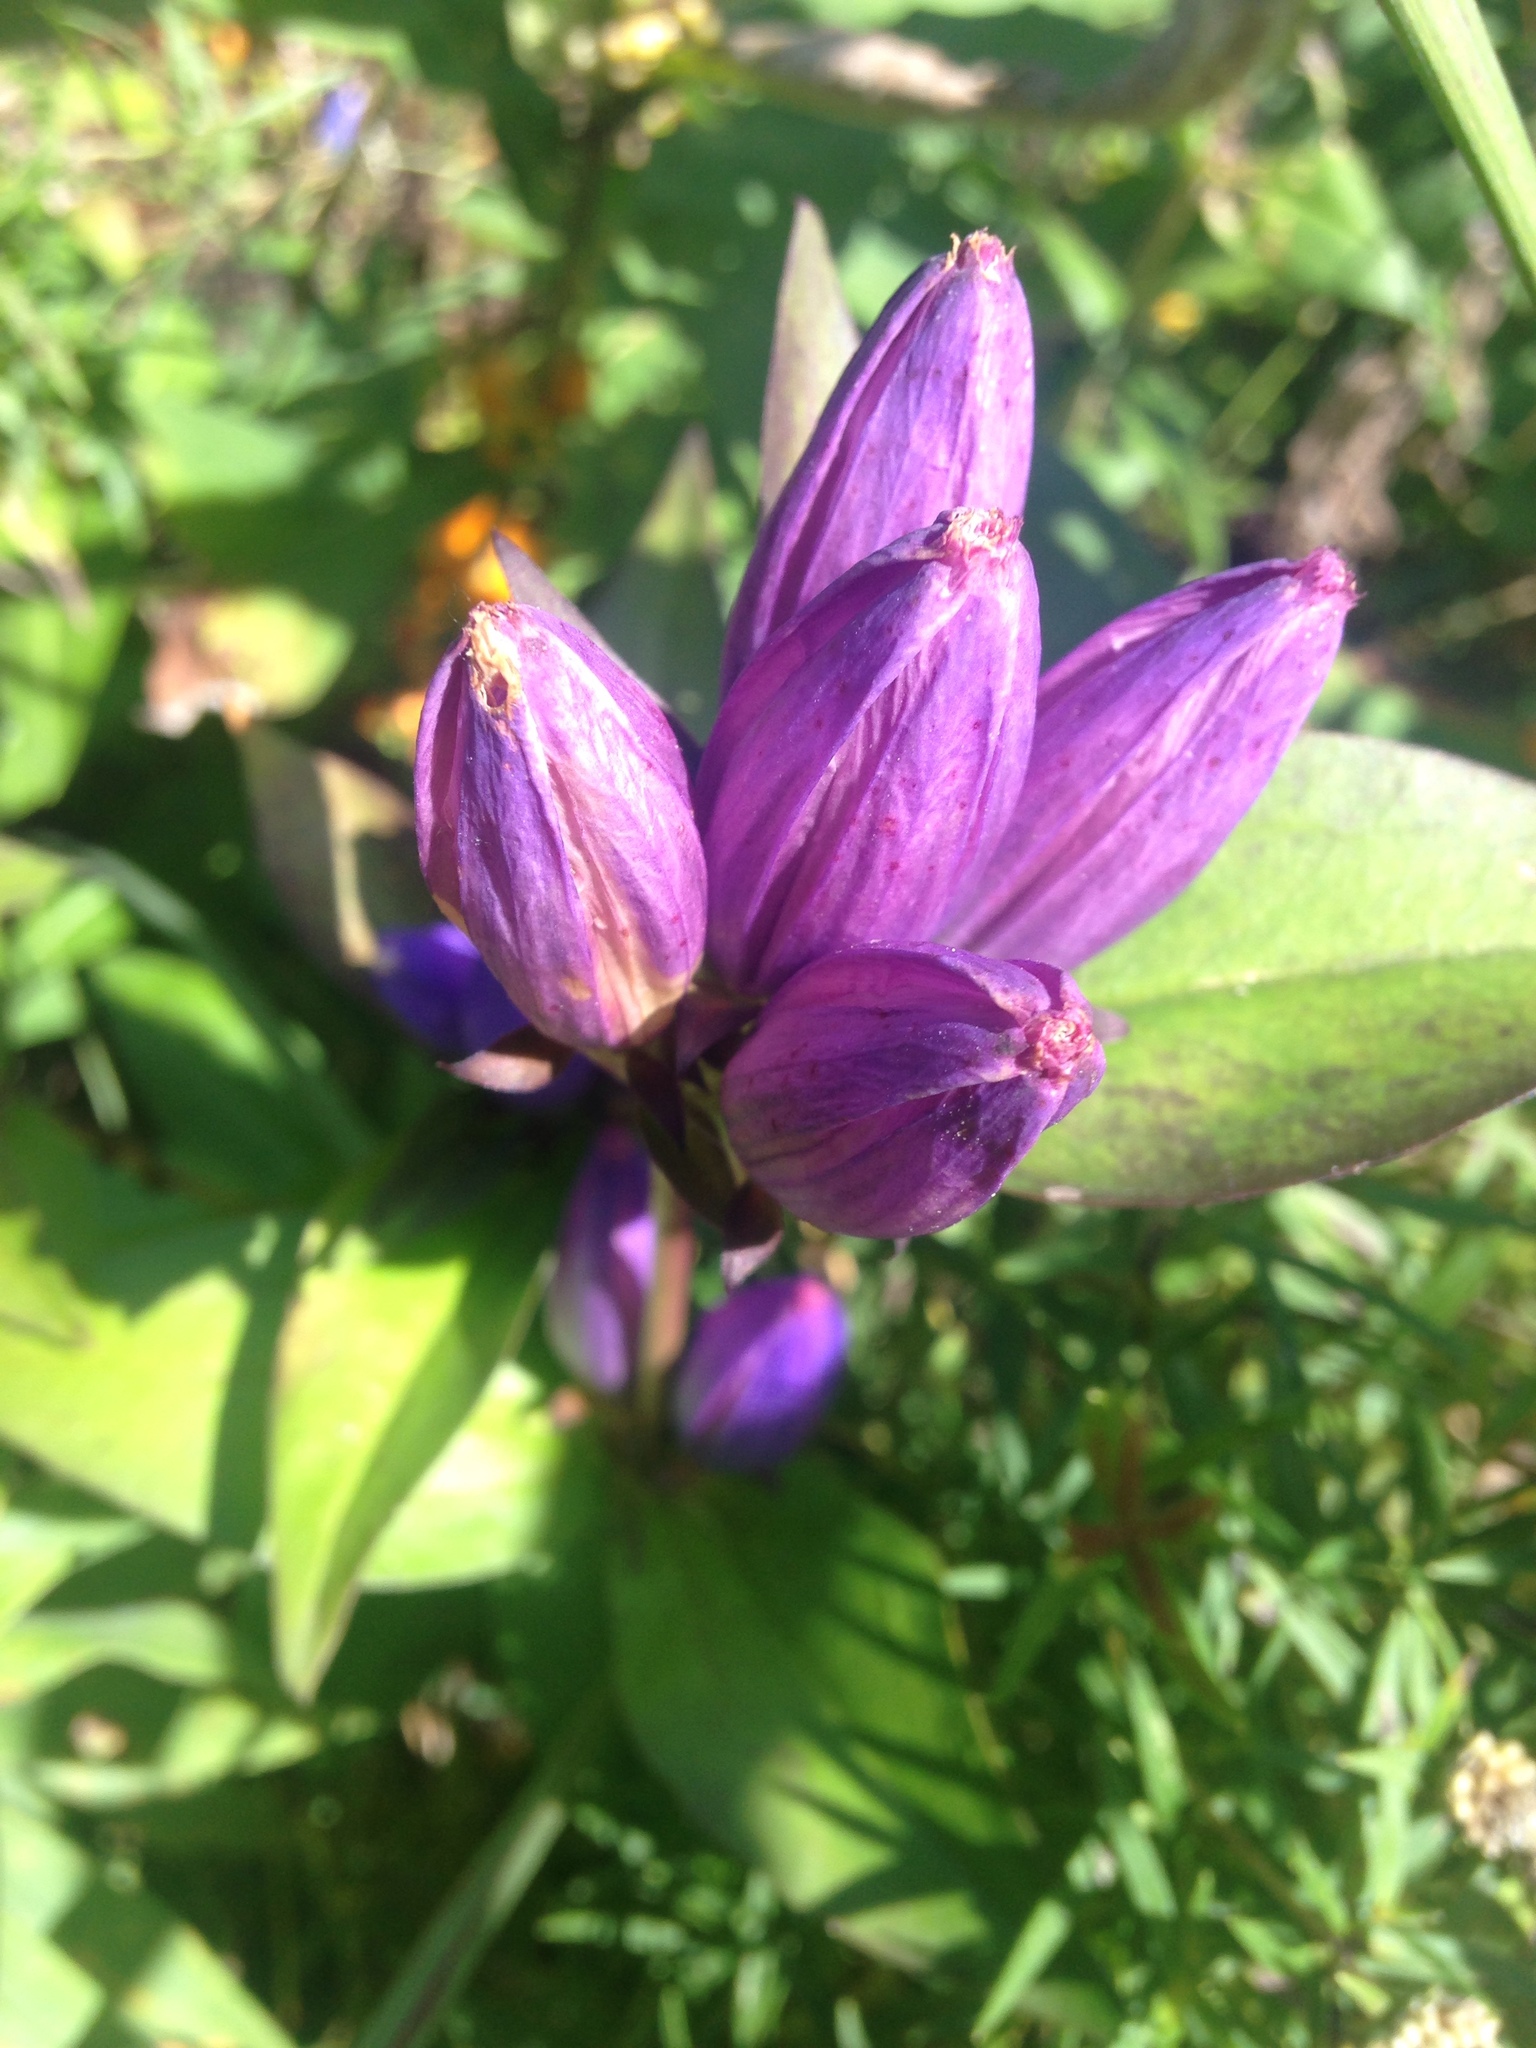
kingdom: Plantae
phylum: Tracheophyta
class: Magnoliopsida
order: Gentianales
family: Gentianaceae
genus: Gentiana
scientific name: Gentiana andrewsii
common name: Bottle gentian
